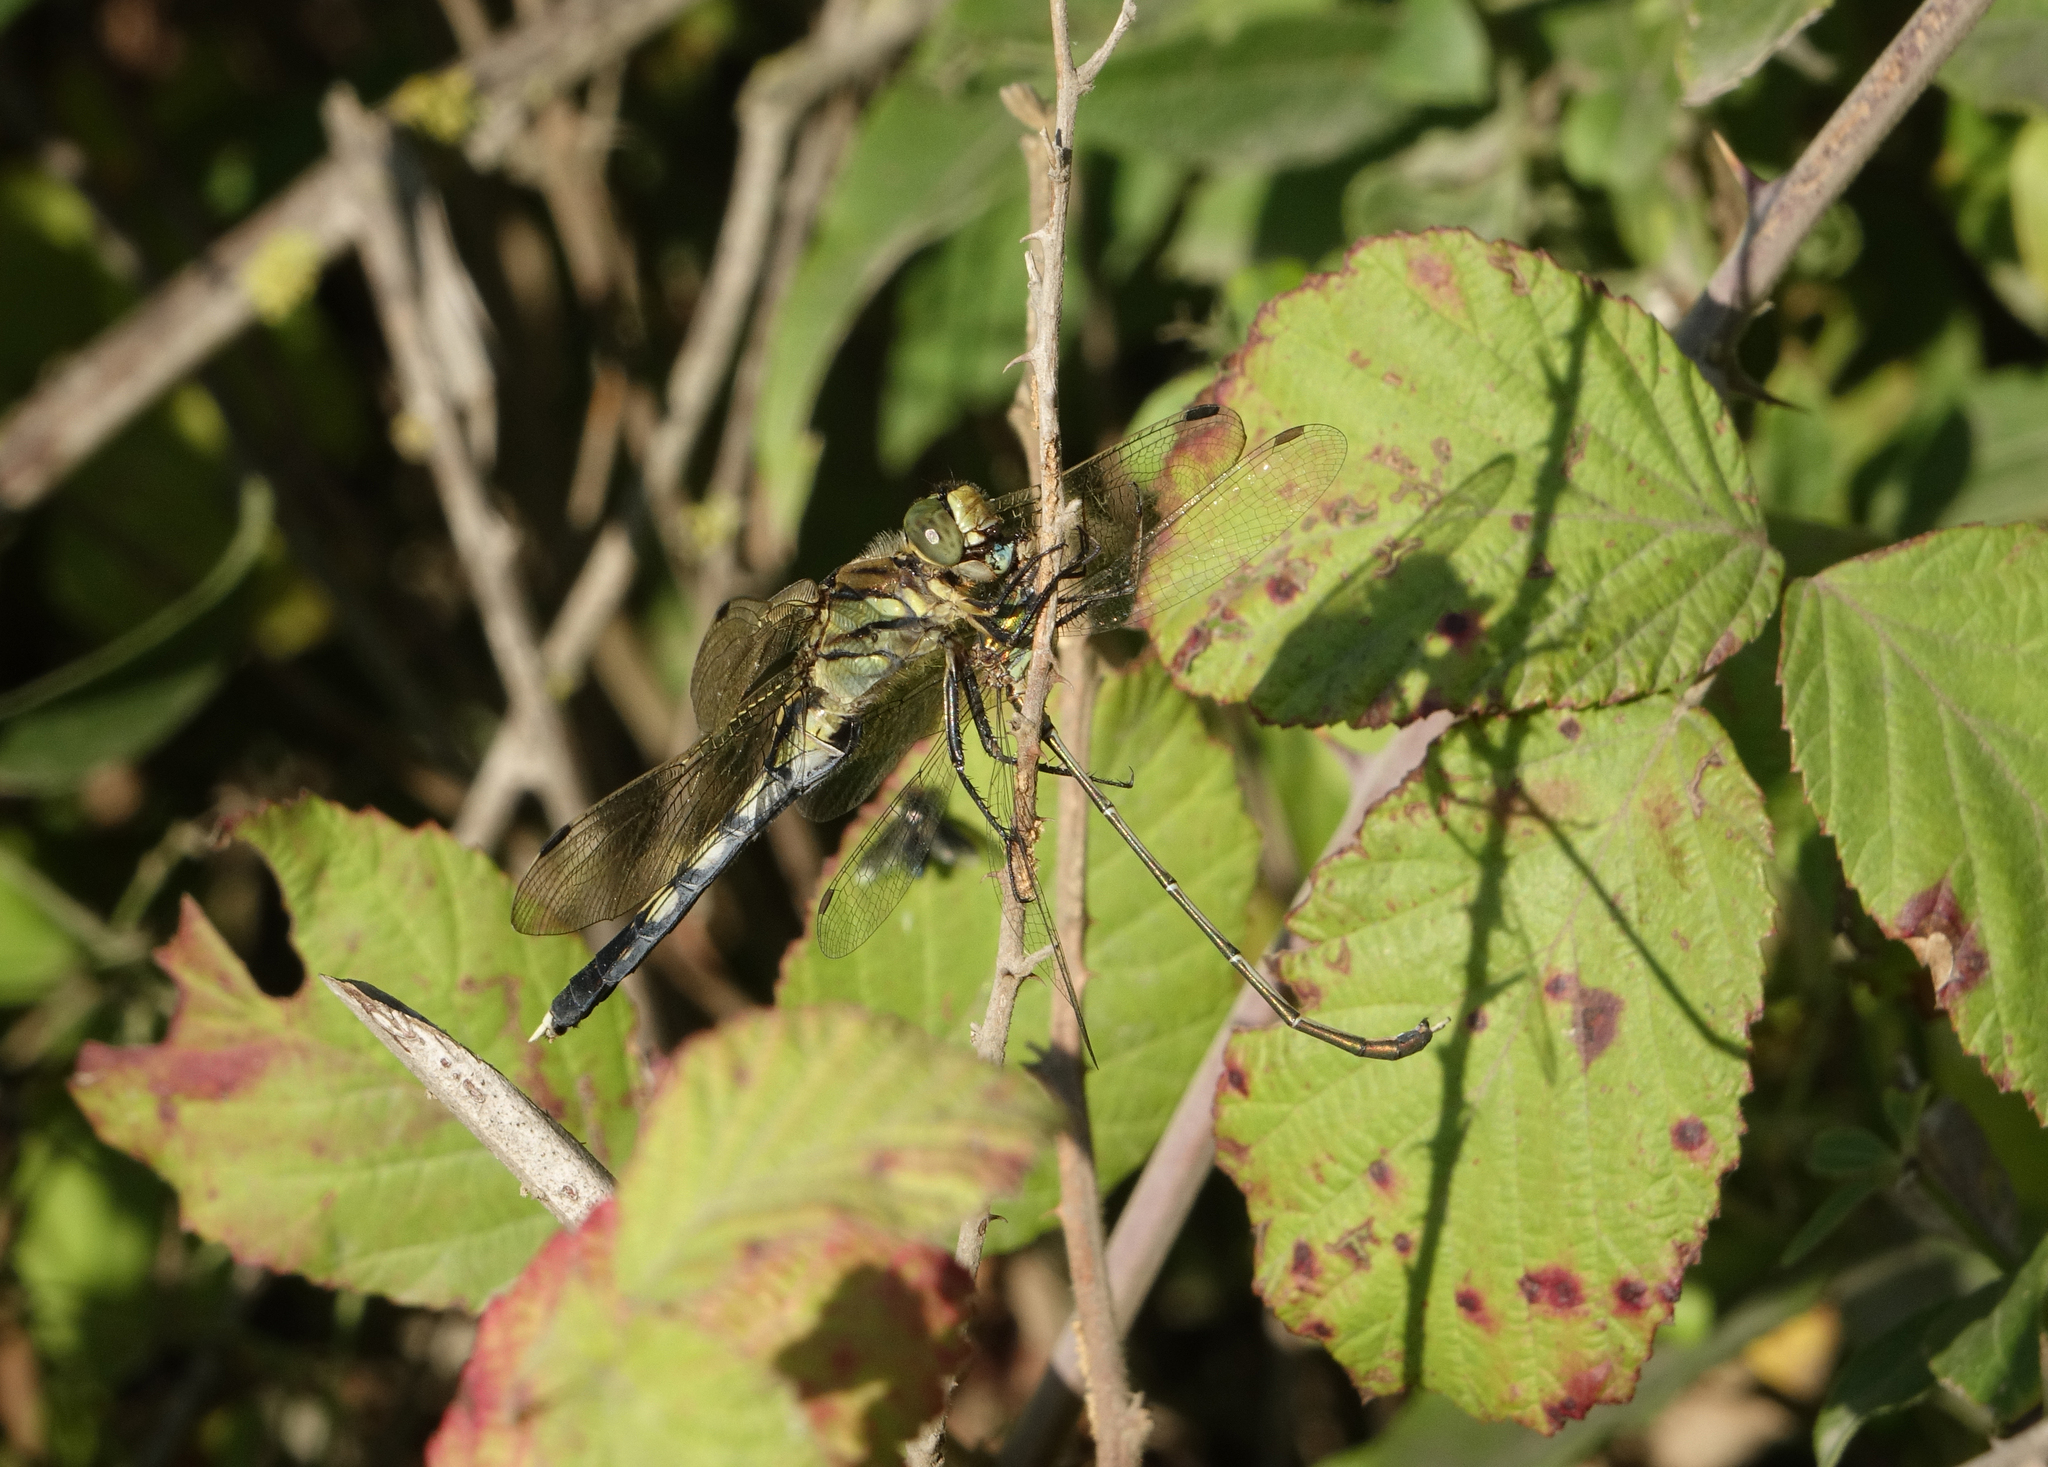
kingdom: Animalia
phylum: Arthropoda
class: Insecta
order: Odonata
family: Lestidae
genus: Chalcolestes
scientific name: Chalcolestes parvidens
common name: Eastern willow spreadwing
